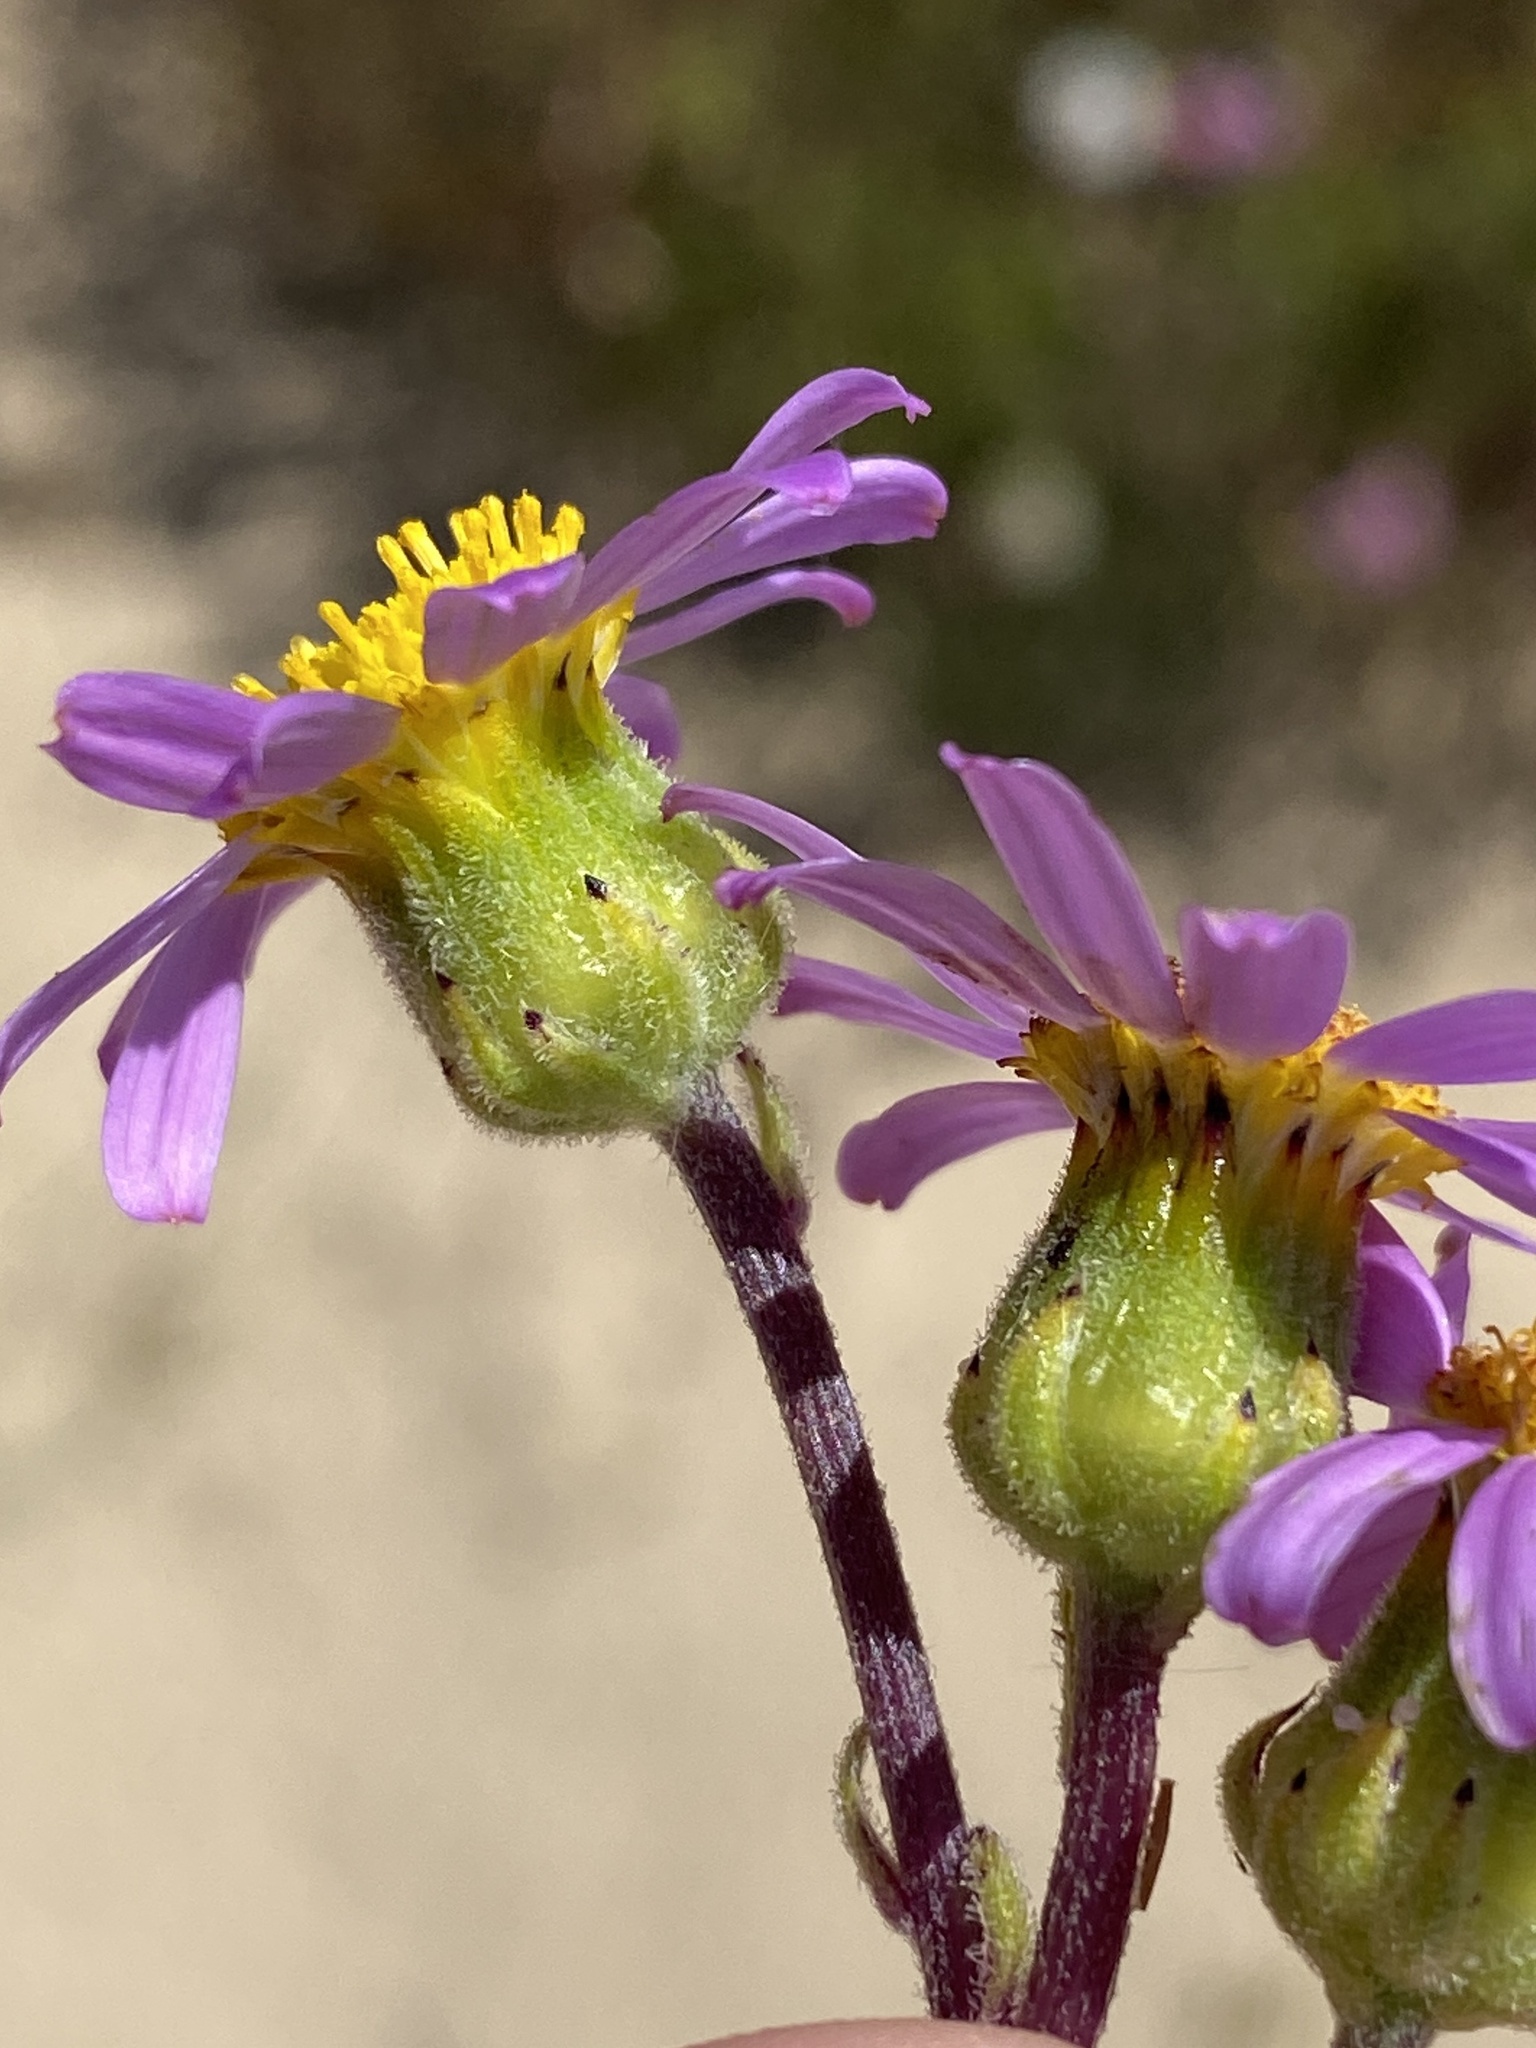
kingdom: Plantae
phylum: Tracheophyta
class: Magnoliopsida
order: Asterales
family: Asteraceae
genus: Senecio
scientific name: Senecio elegans
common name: Purple groundsel
